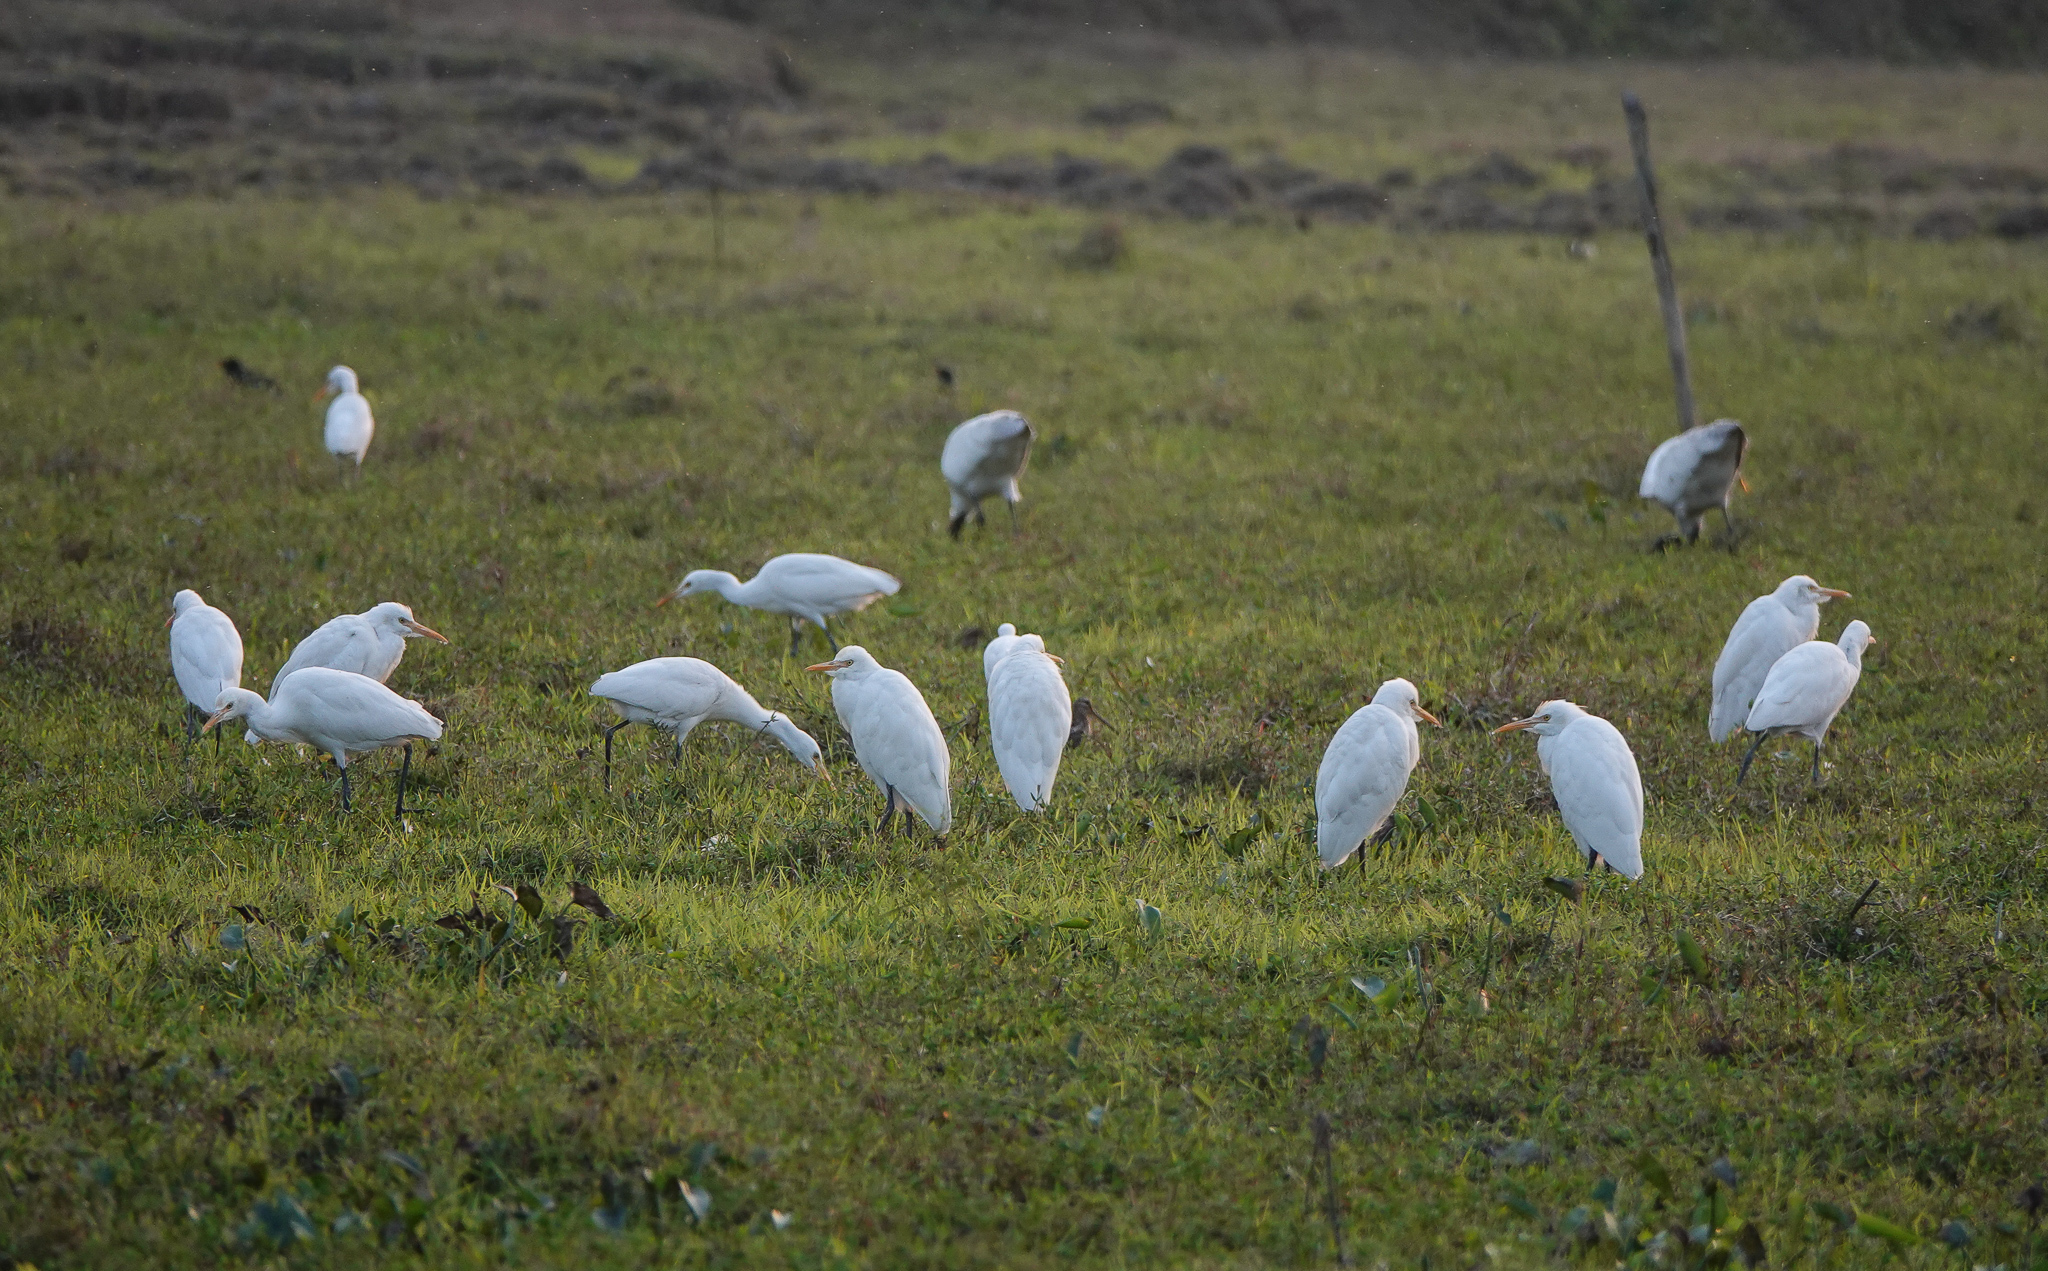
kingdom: Animalia
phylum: Chordata
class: Aves
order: Pelecaniformes
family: Ardeidae
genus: Bubulcus
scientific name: Bubulcus coromandus
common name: Eastern cattle egret
